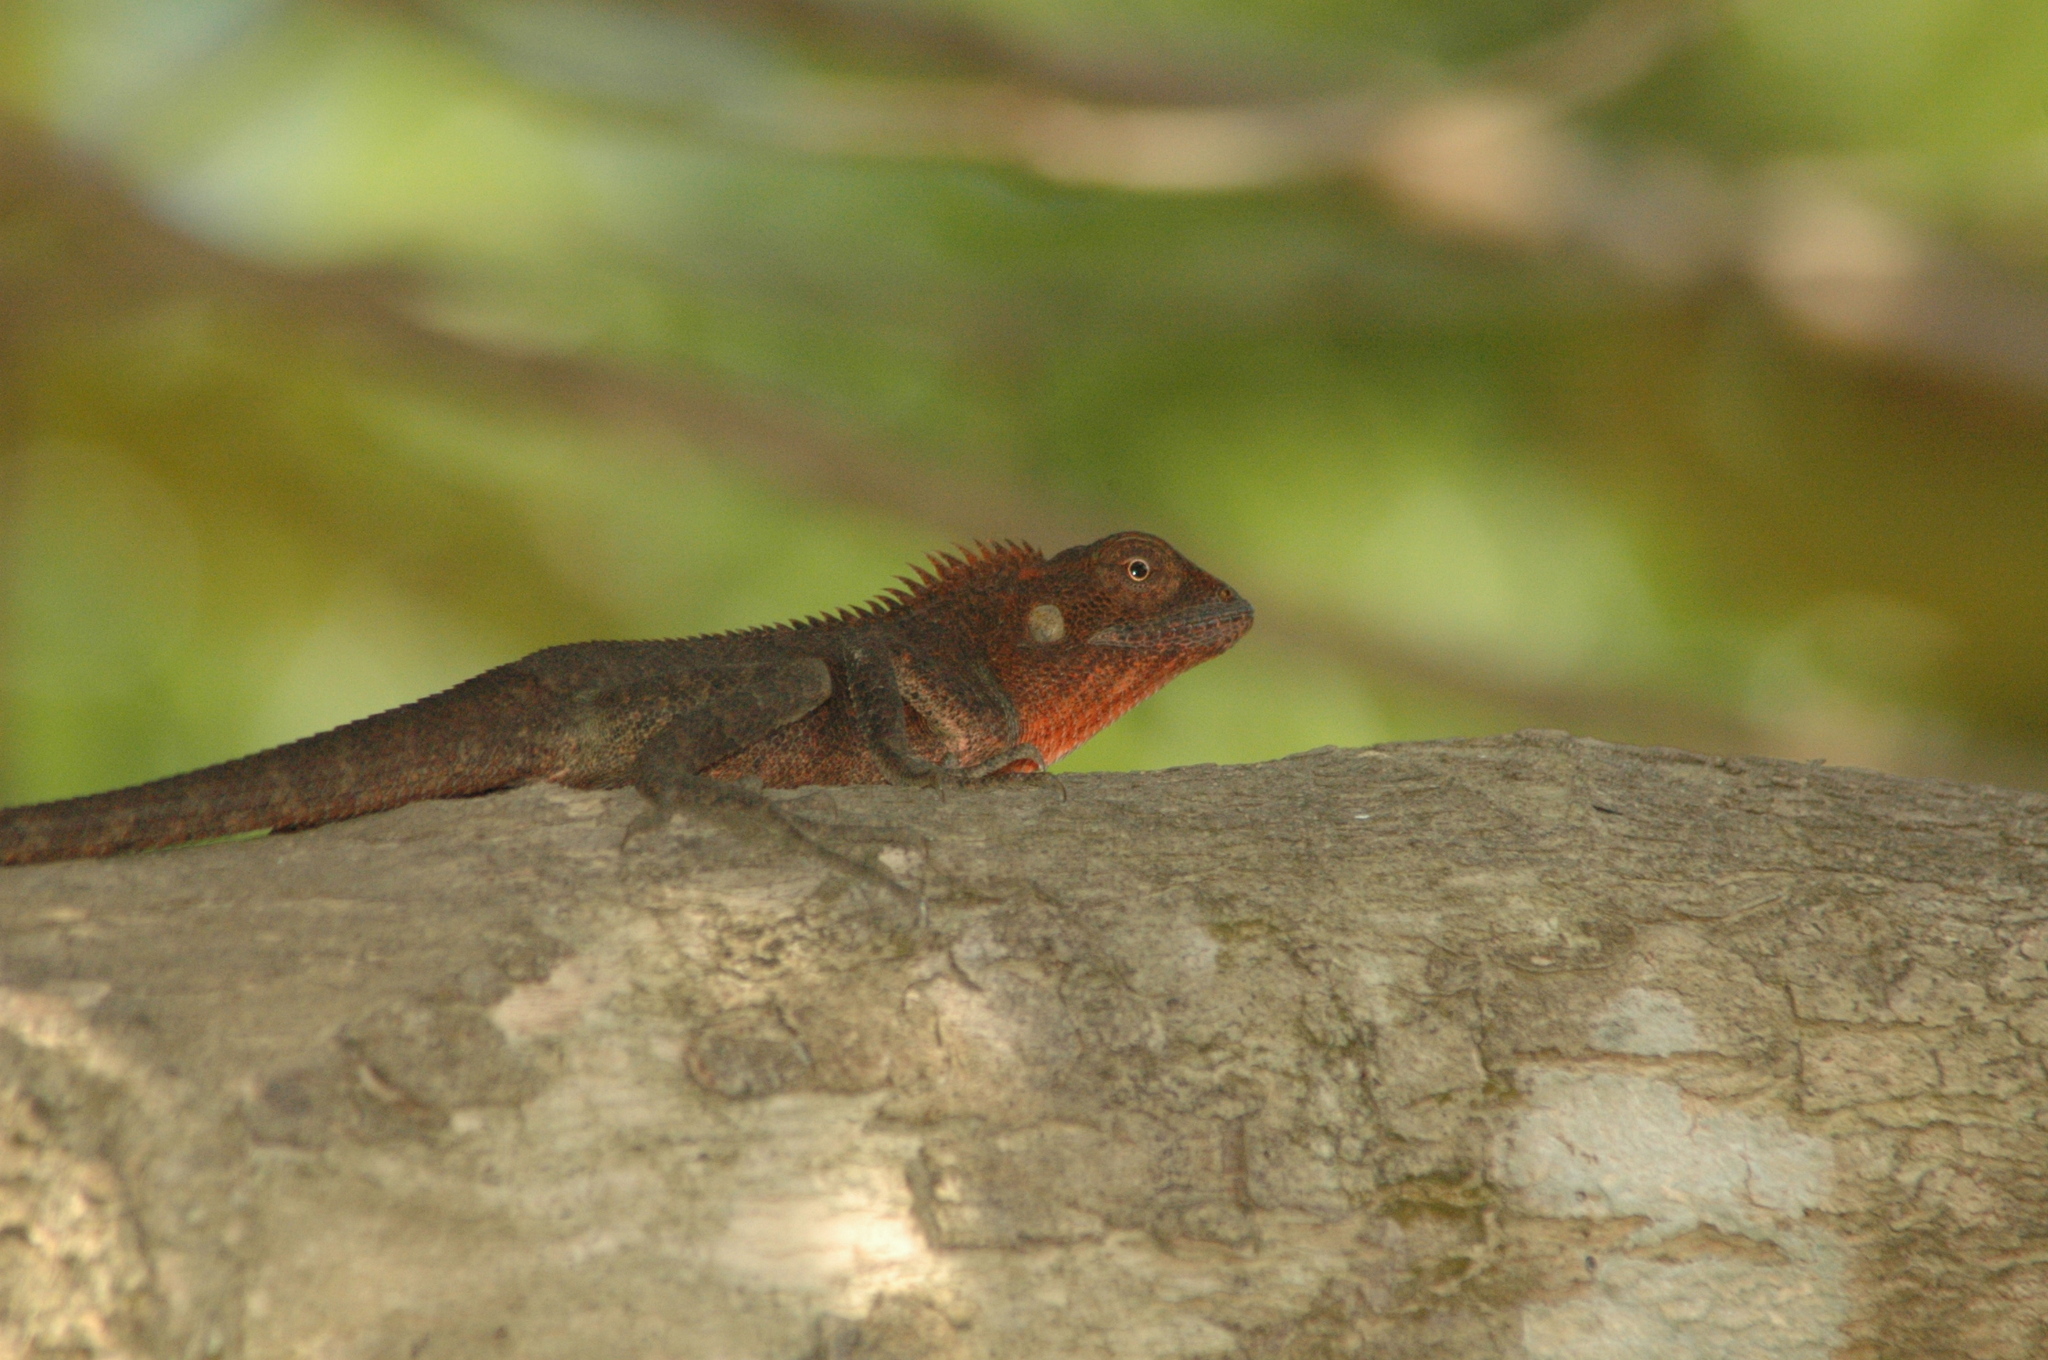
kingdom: Animalia
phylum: Chordata
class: Squamata
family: Agamidae
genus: Calotes
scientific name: Calotes versicolor
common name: Oriental garden lizard
